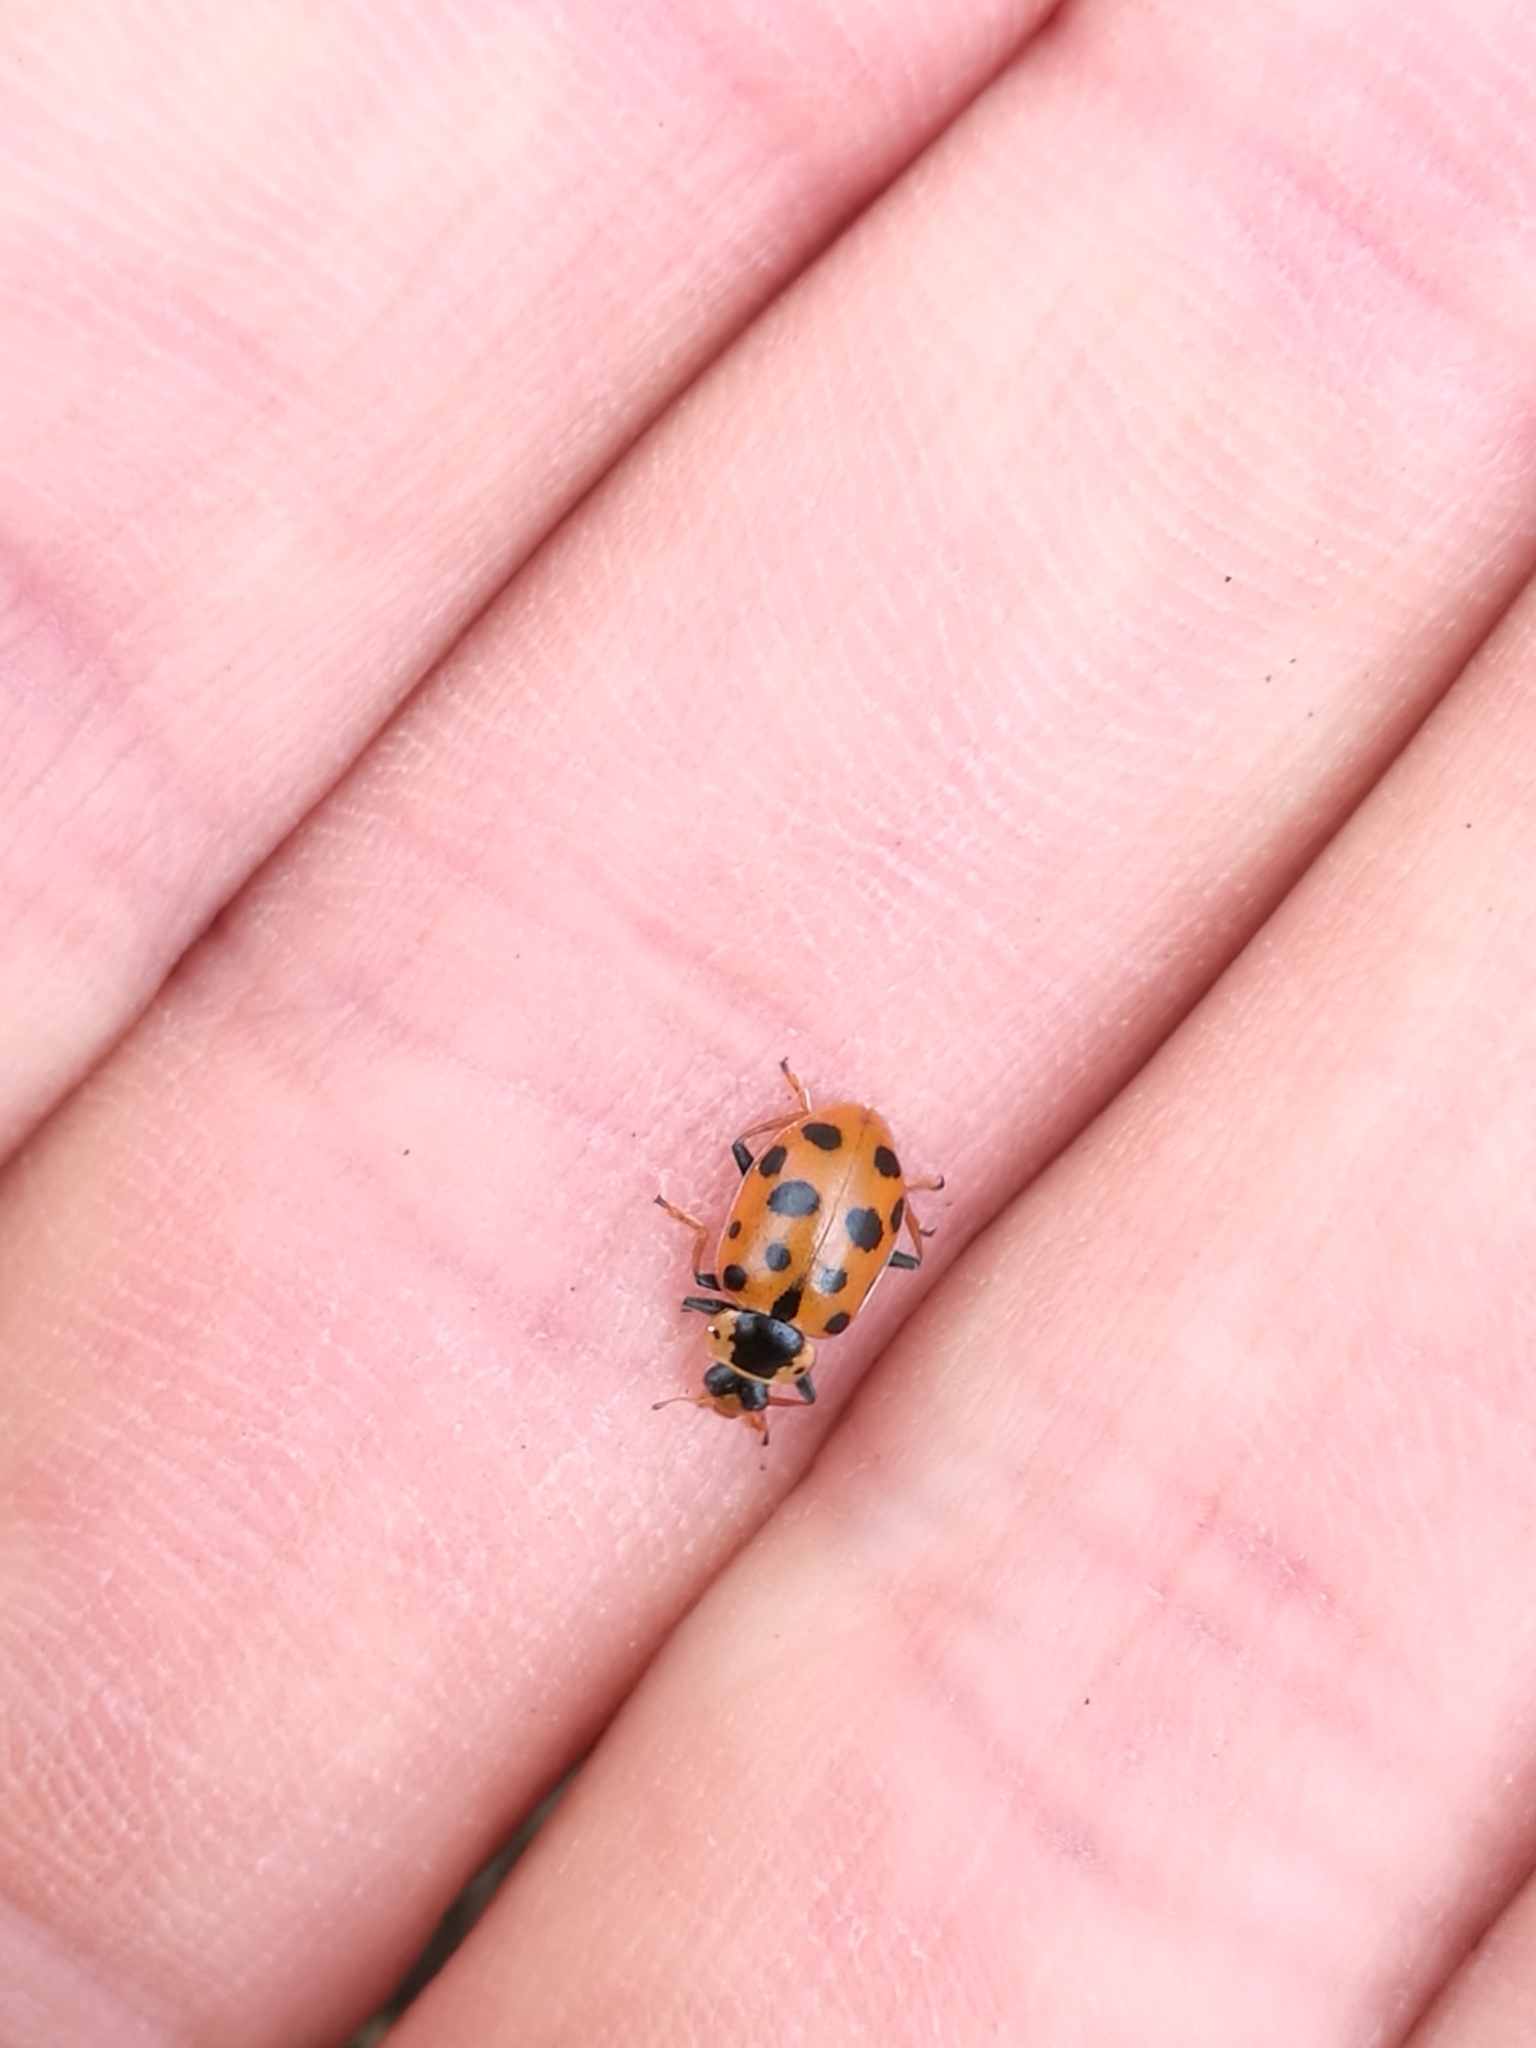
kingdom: Animalia
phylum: Arthropoda
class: Insecta
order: Coleoptera
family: Coccinellidae
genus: Hippodamia
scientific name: Hippodamia tredecimpunctata
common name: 13-spot ladybird
